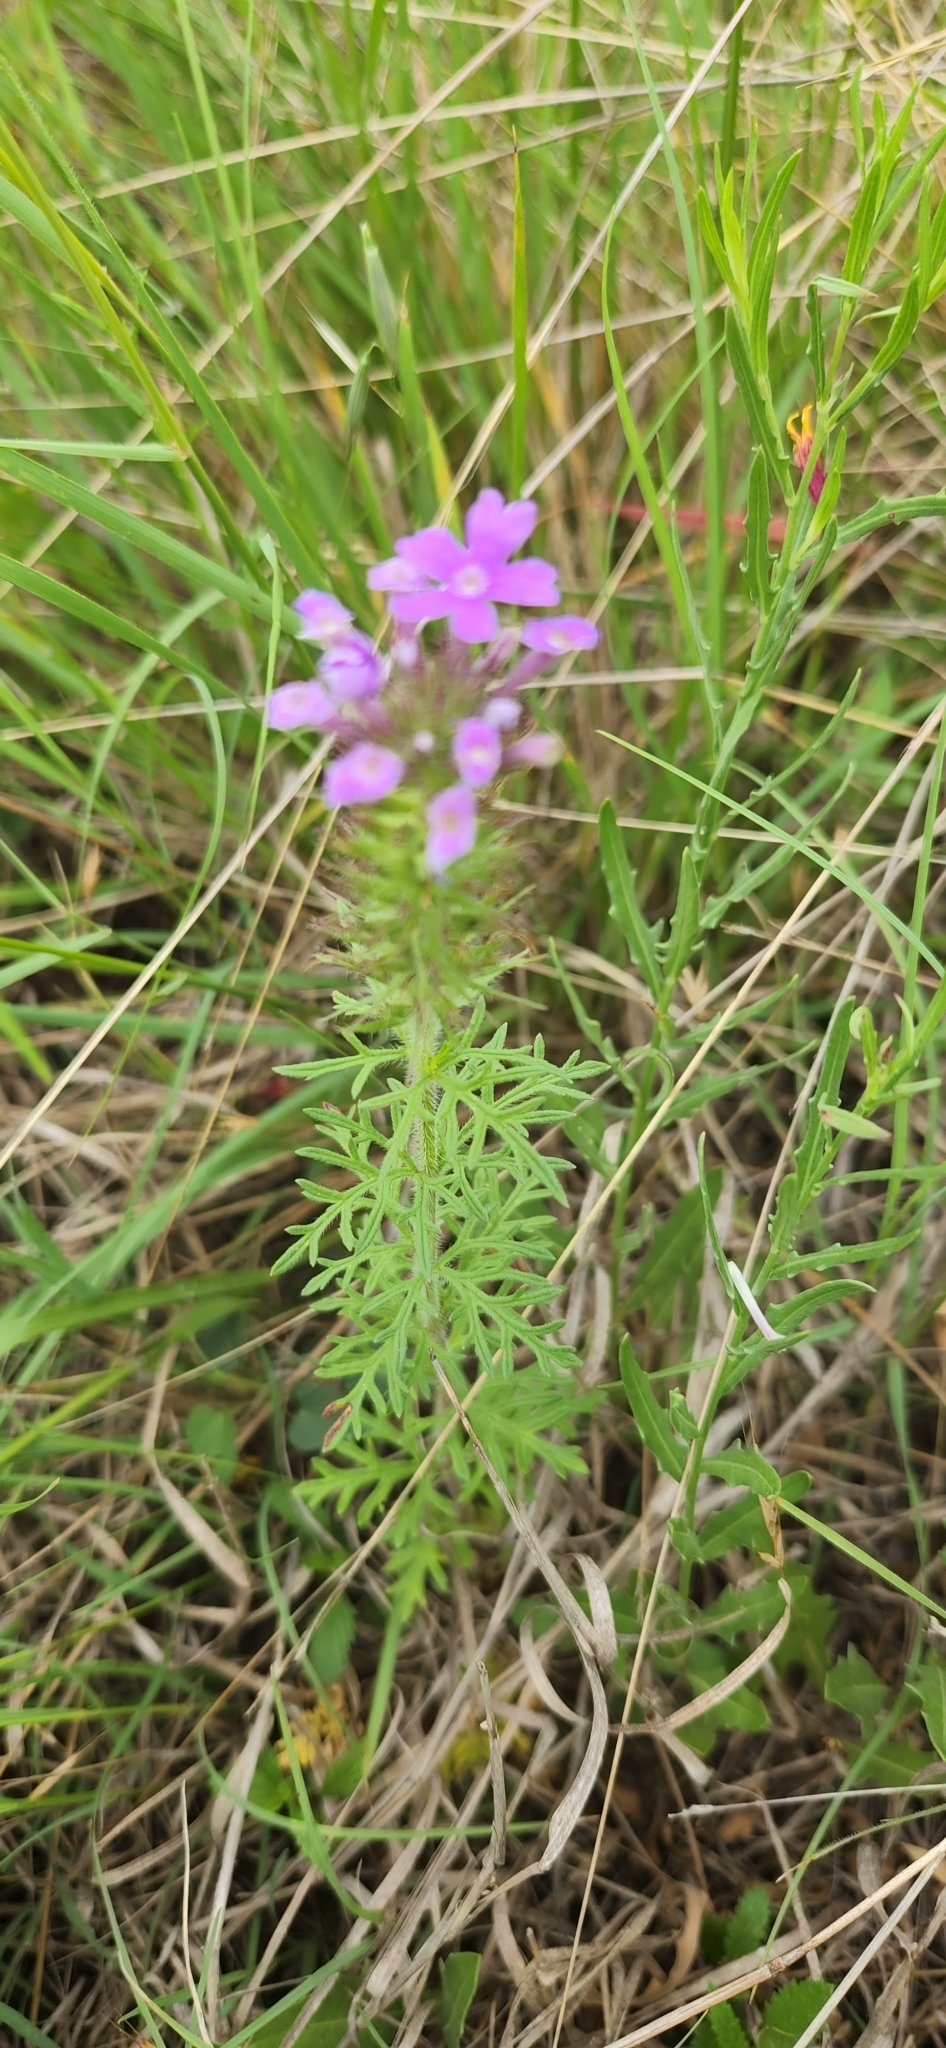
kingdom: Plantae
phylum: Tracheophyta
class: Magnoliopsida
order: Lamiales
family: Verbenaceae
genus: Verbena
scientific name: Verbena bipinnatifida
